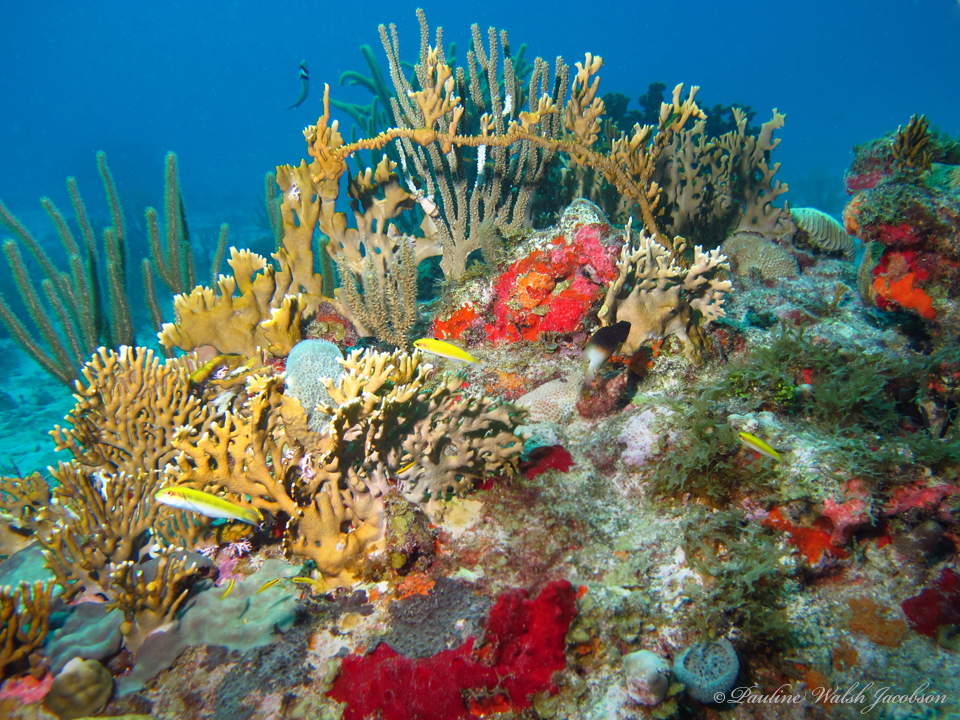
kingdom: Animalia
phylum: Chordata
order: Perciformes
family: Labridae
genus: Thalassoma
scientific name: Thalassoma bifasciatum
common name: Bluehead wrasse
